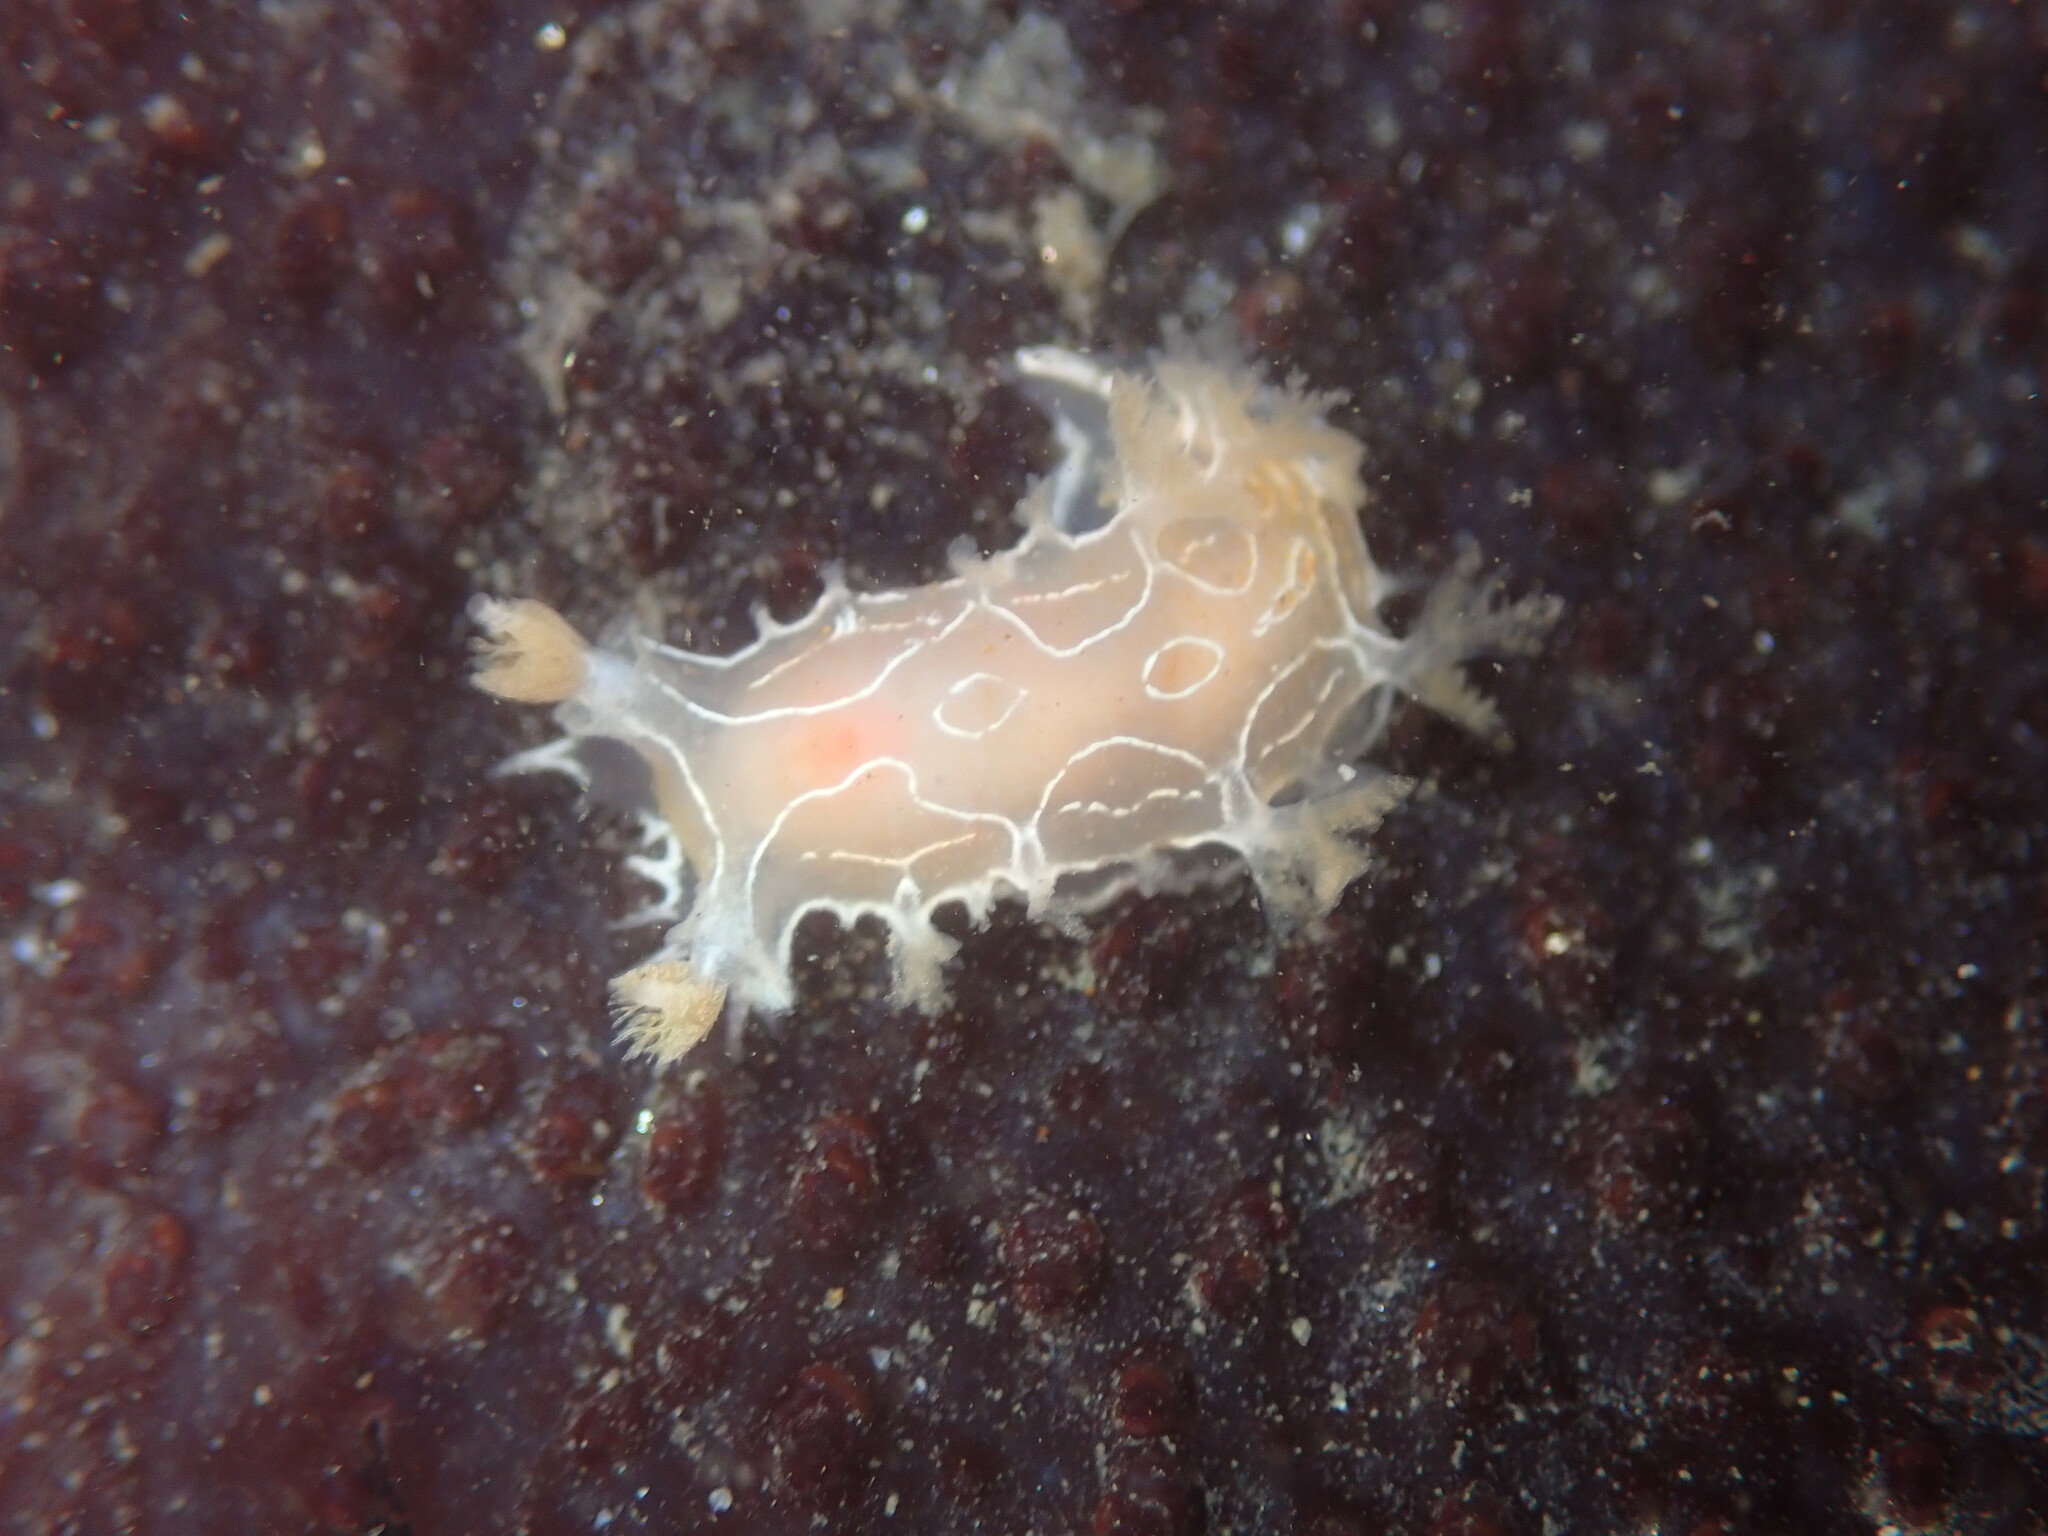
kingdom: Animalia
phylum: Mollusca
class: Gastropoda
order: Nudibranchia
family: Tritoniidae
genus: Tritonia
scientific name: Tritonia festiva
